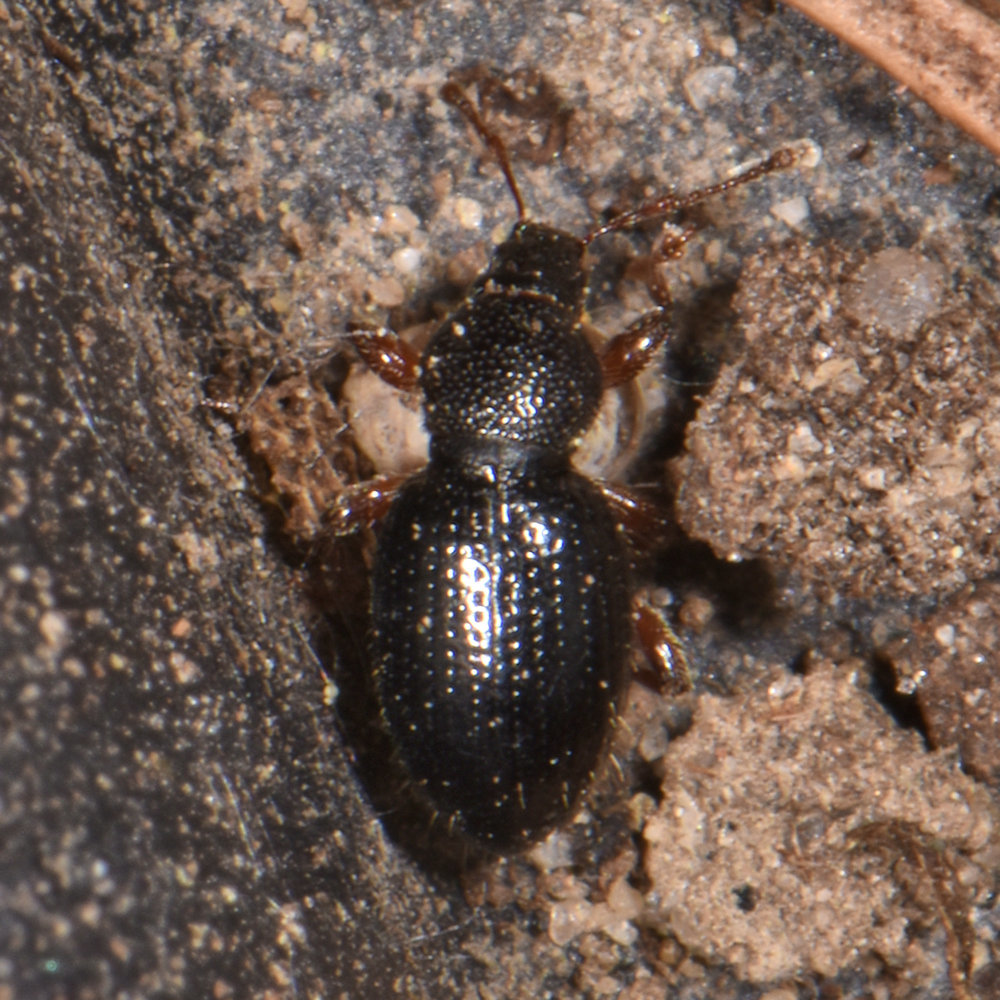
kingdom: Animalia
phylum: Arthropoda
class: Insecta
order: Coleoptera
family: Curculionidae
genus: Exomias
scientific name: Exomias pellucidus
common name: Hairy spider weevil
